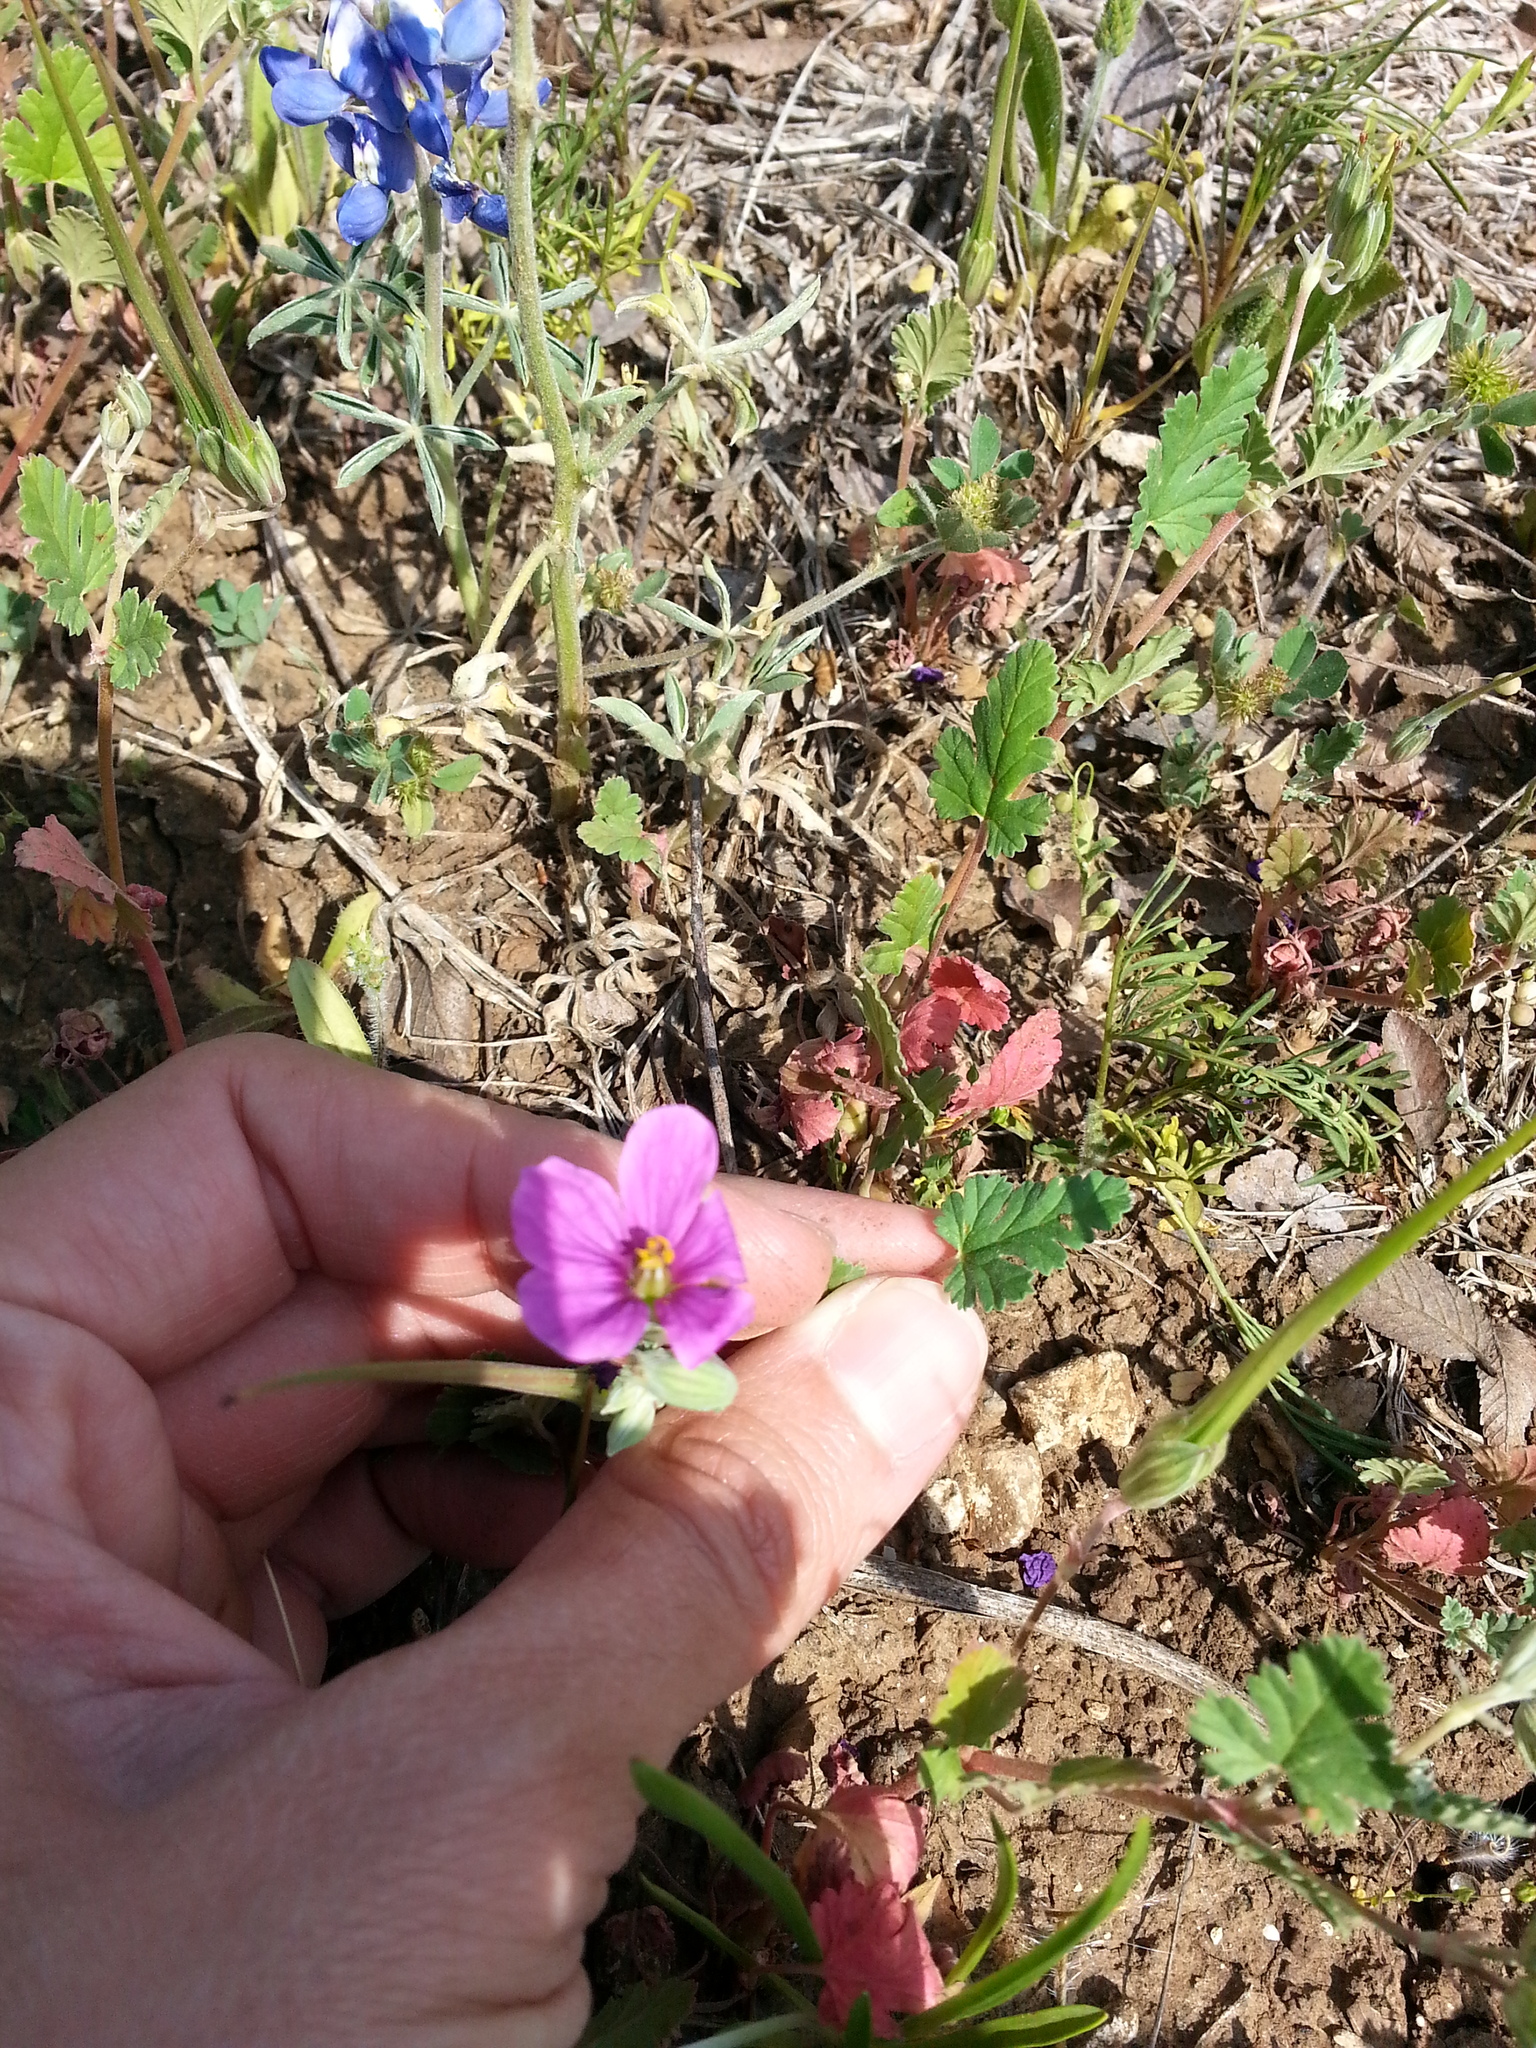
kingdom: Plantae
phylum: Tracheophyta
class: Magnoliopsida
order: Geraniales
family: Geraniaceae
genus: Erodium
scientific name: Erodium texanum
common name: Texas stork's-bill
